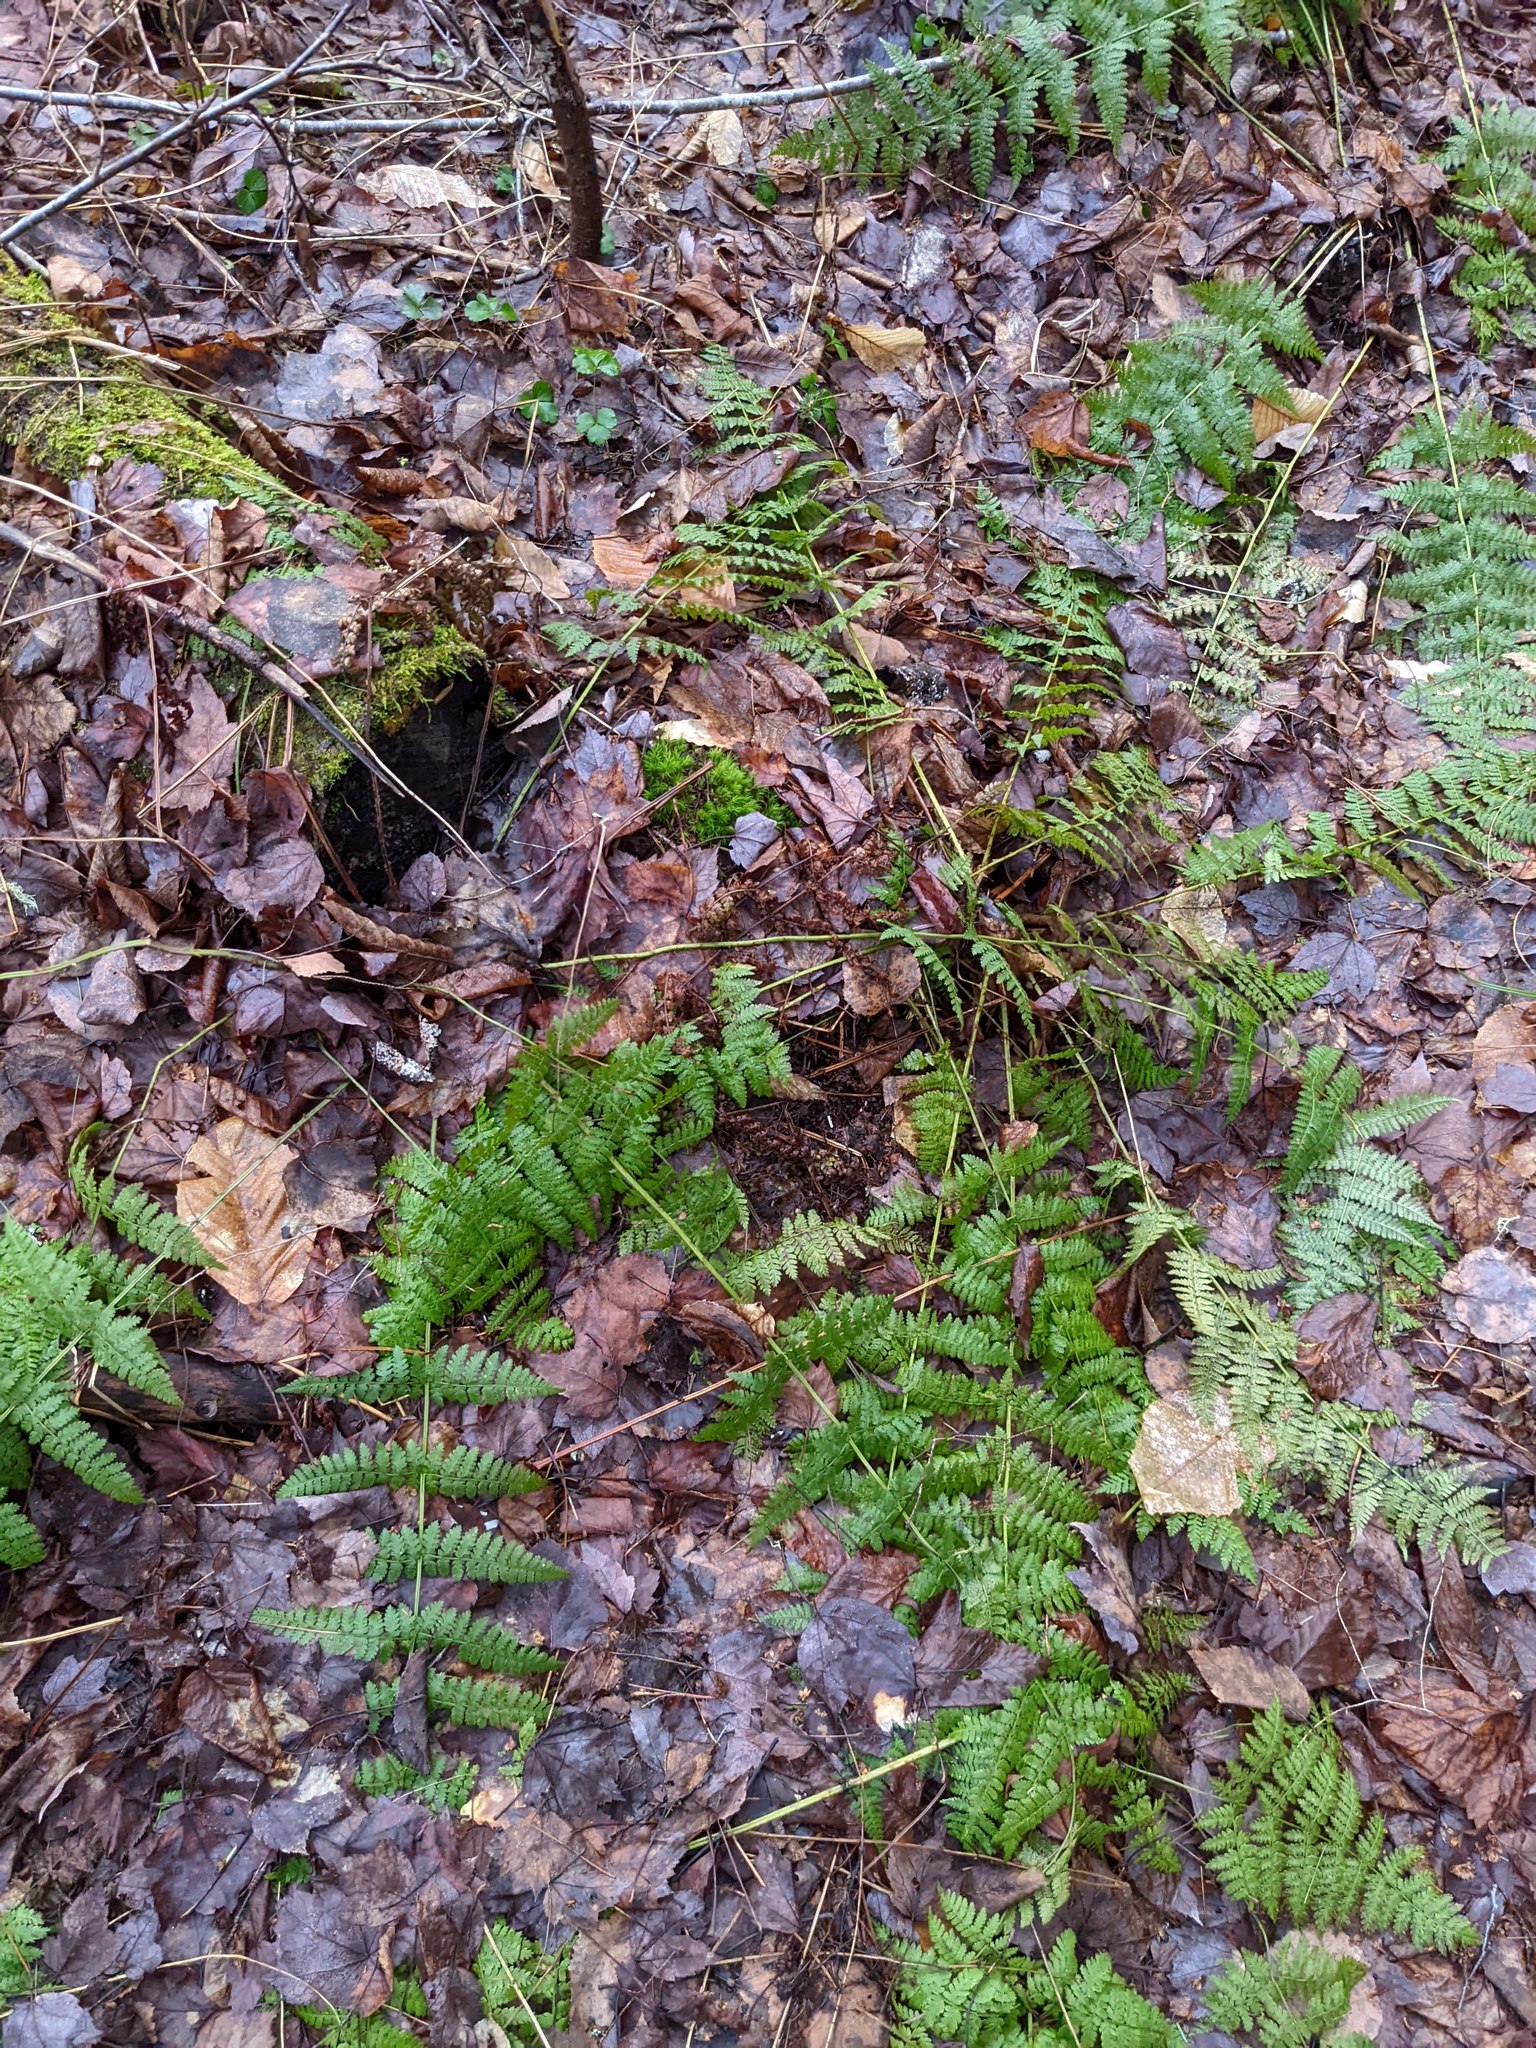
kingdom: Plantae
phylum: Tracheophyta
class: Polypodiopsida
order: Polypodiales
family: Dryopteridaceae
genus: Dryopteris
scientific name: Dryopteris intermedia
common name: Evergreen wood fern
